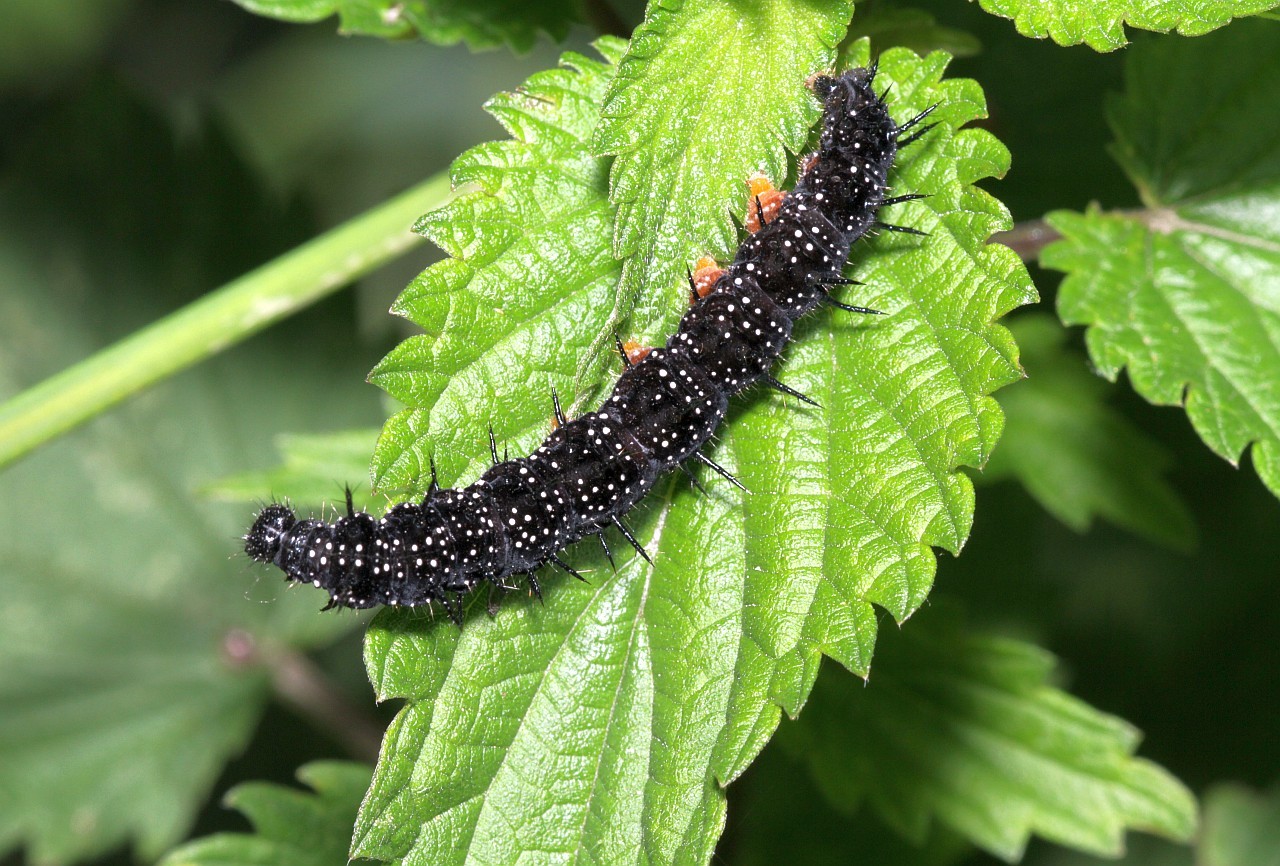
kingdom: Animalia
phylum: Arthropoda
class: Insecta
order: Lepidoptera
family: Nymphalidae
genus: Aglais
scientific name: Aglais io
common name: Peacock
